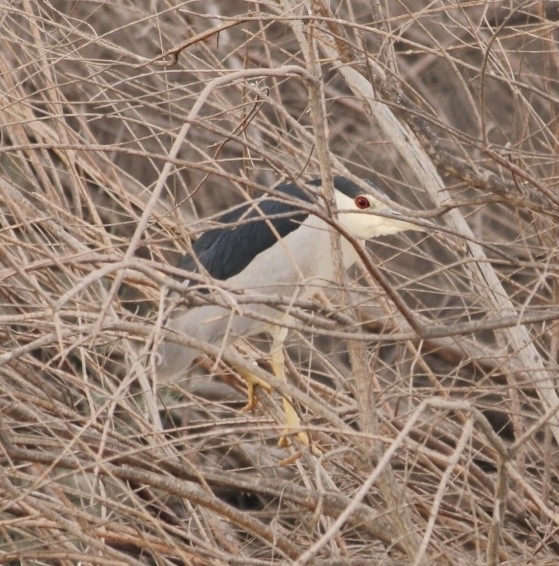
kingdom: Animalia
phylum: Chordata
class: Aves
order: Pelecaniformes
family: Ardeidae
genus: Nycticorax
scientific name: Nycticorax nycticorax
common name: Black-crowned night heron
